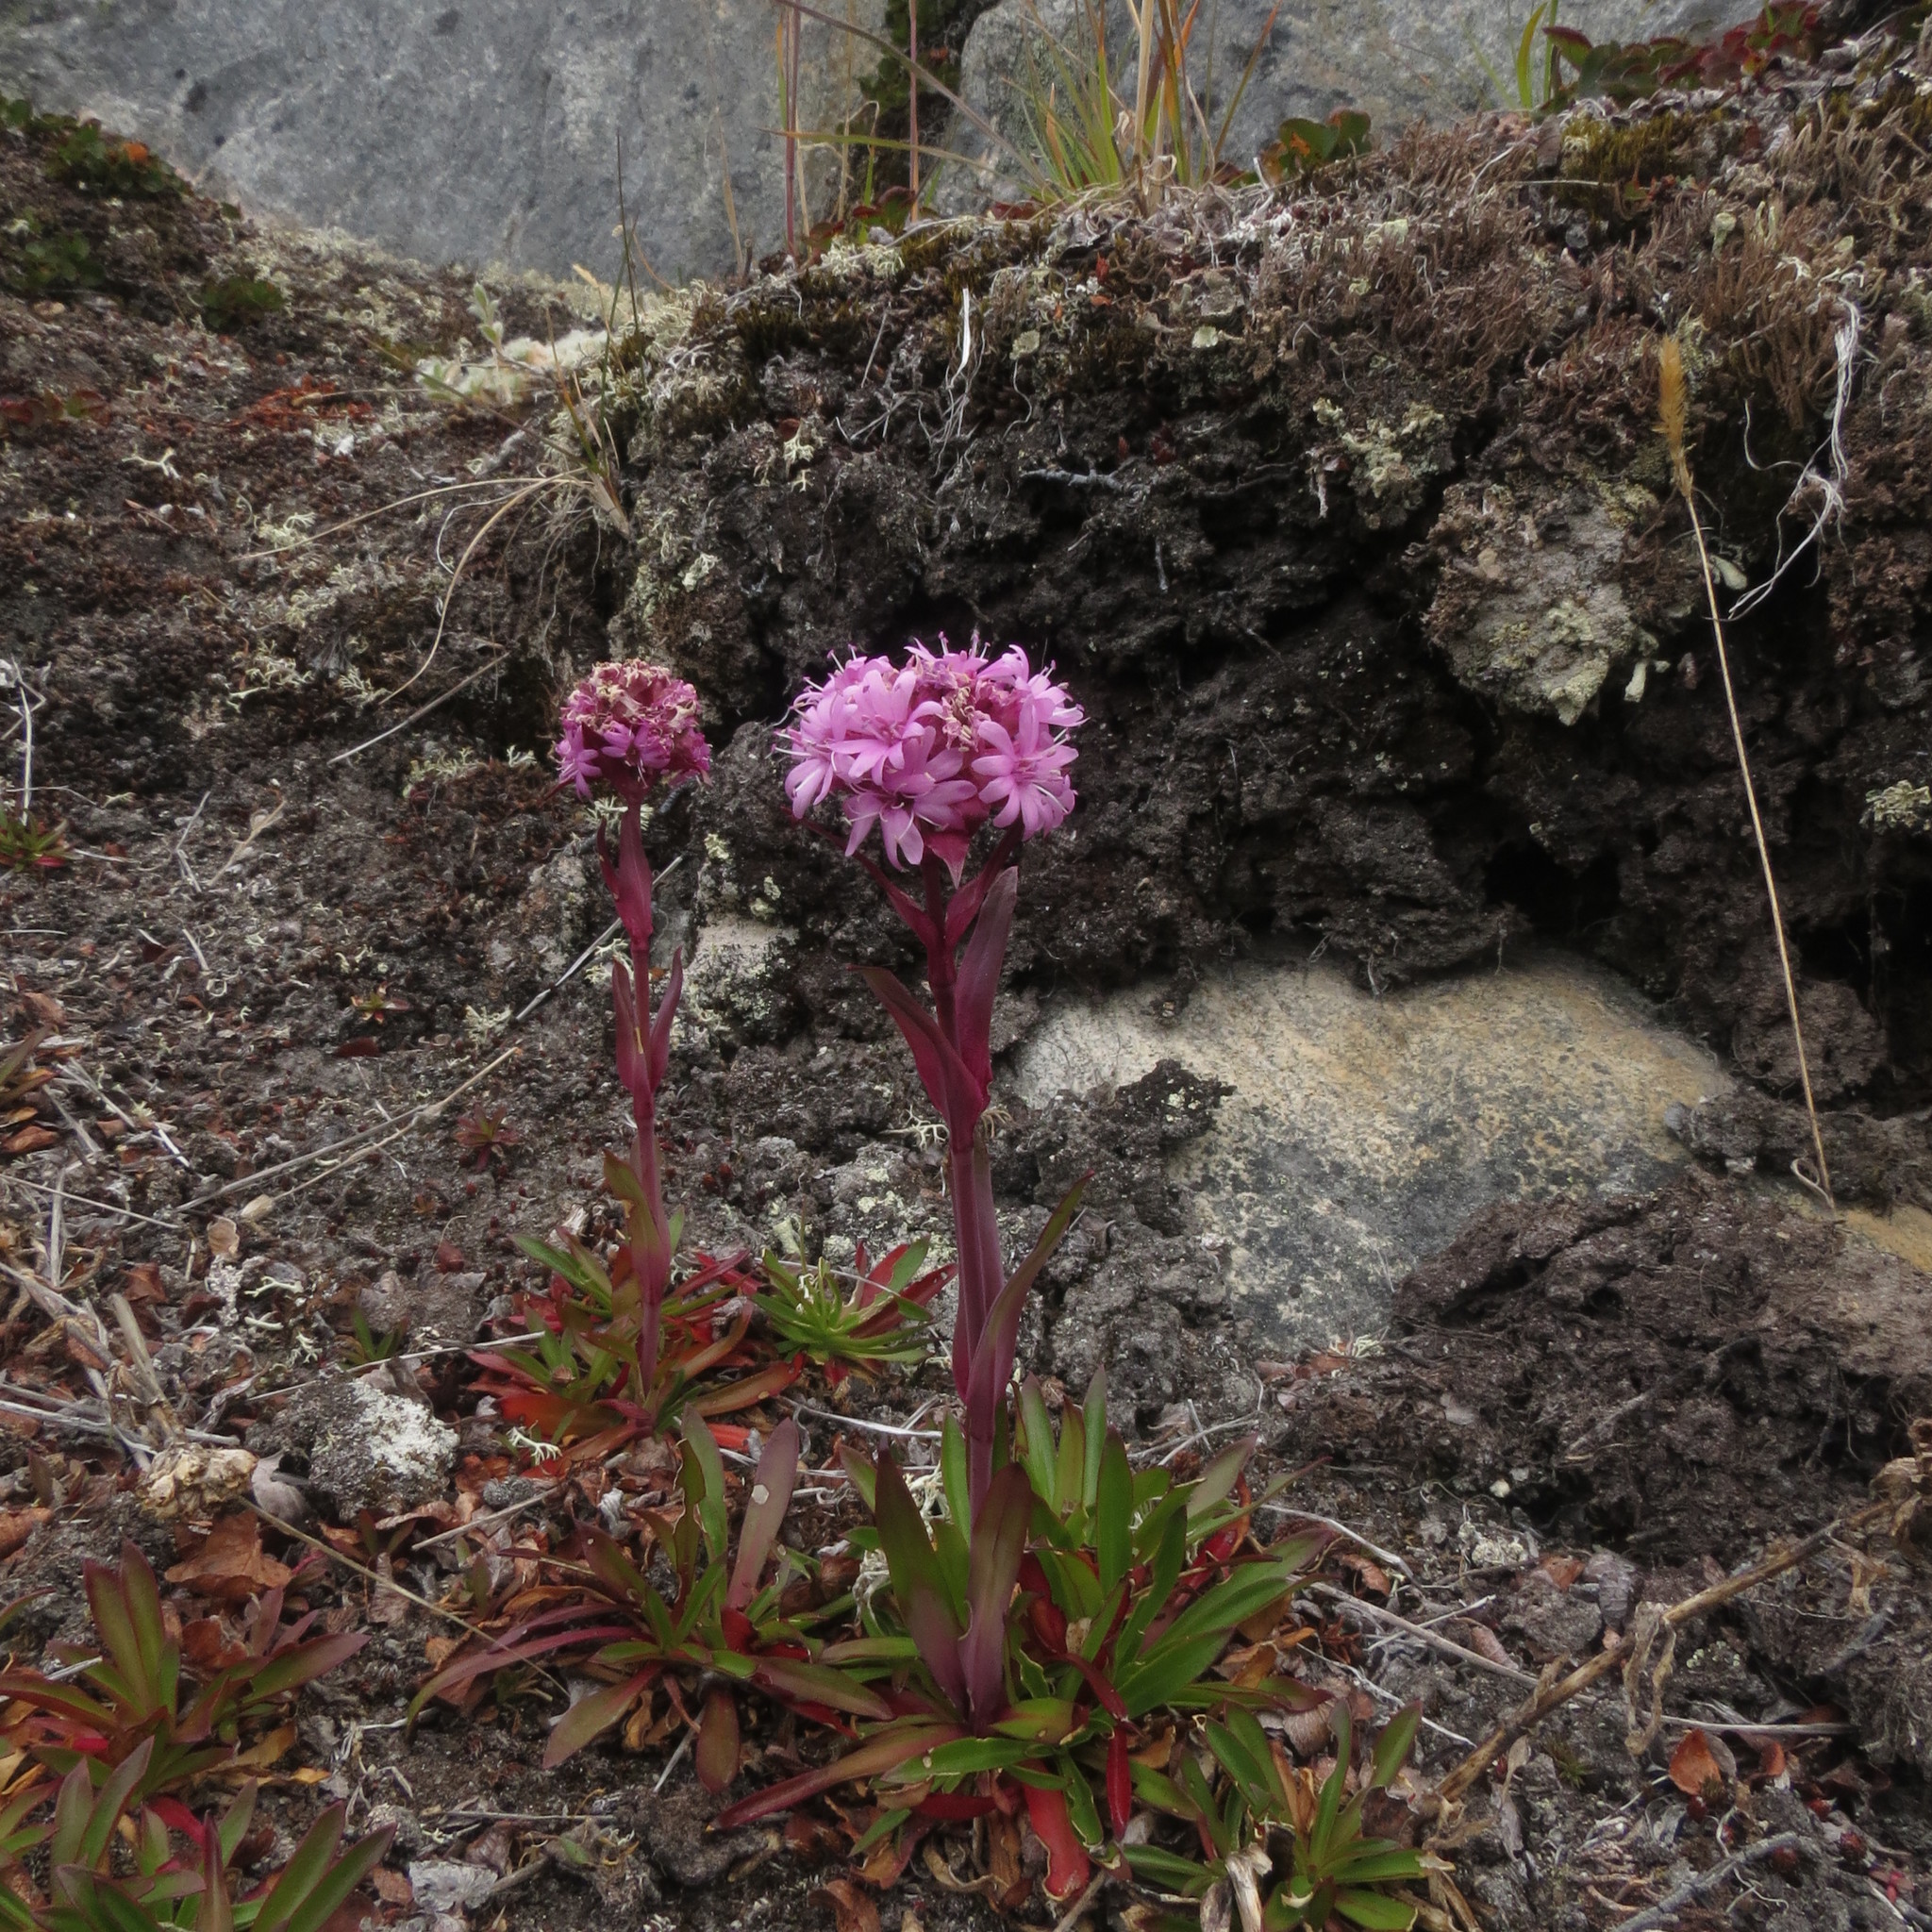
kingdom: Plantae
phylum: Tracheophyta
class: Magnoliopsida
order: Caryophyllales
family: Caryophyllaceae
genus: Viscaria
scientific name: Viscaria alpina
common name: Alpine campion
